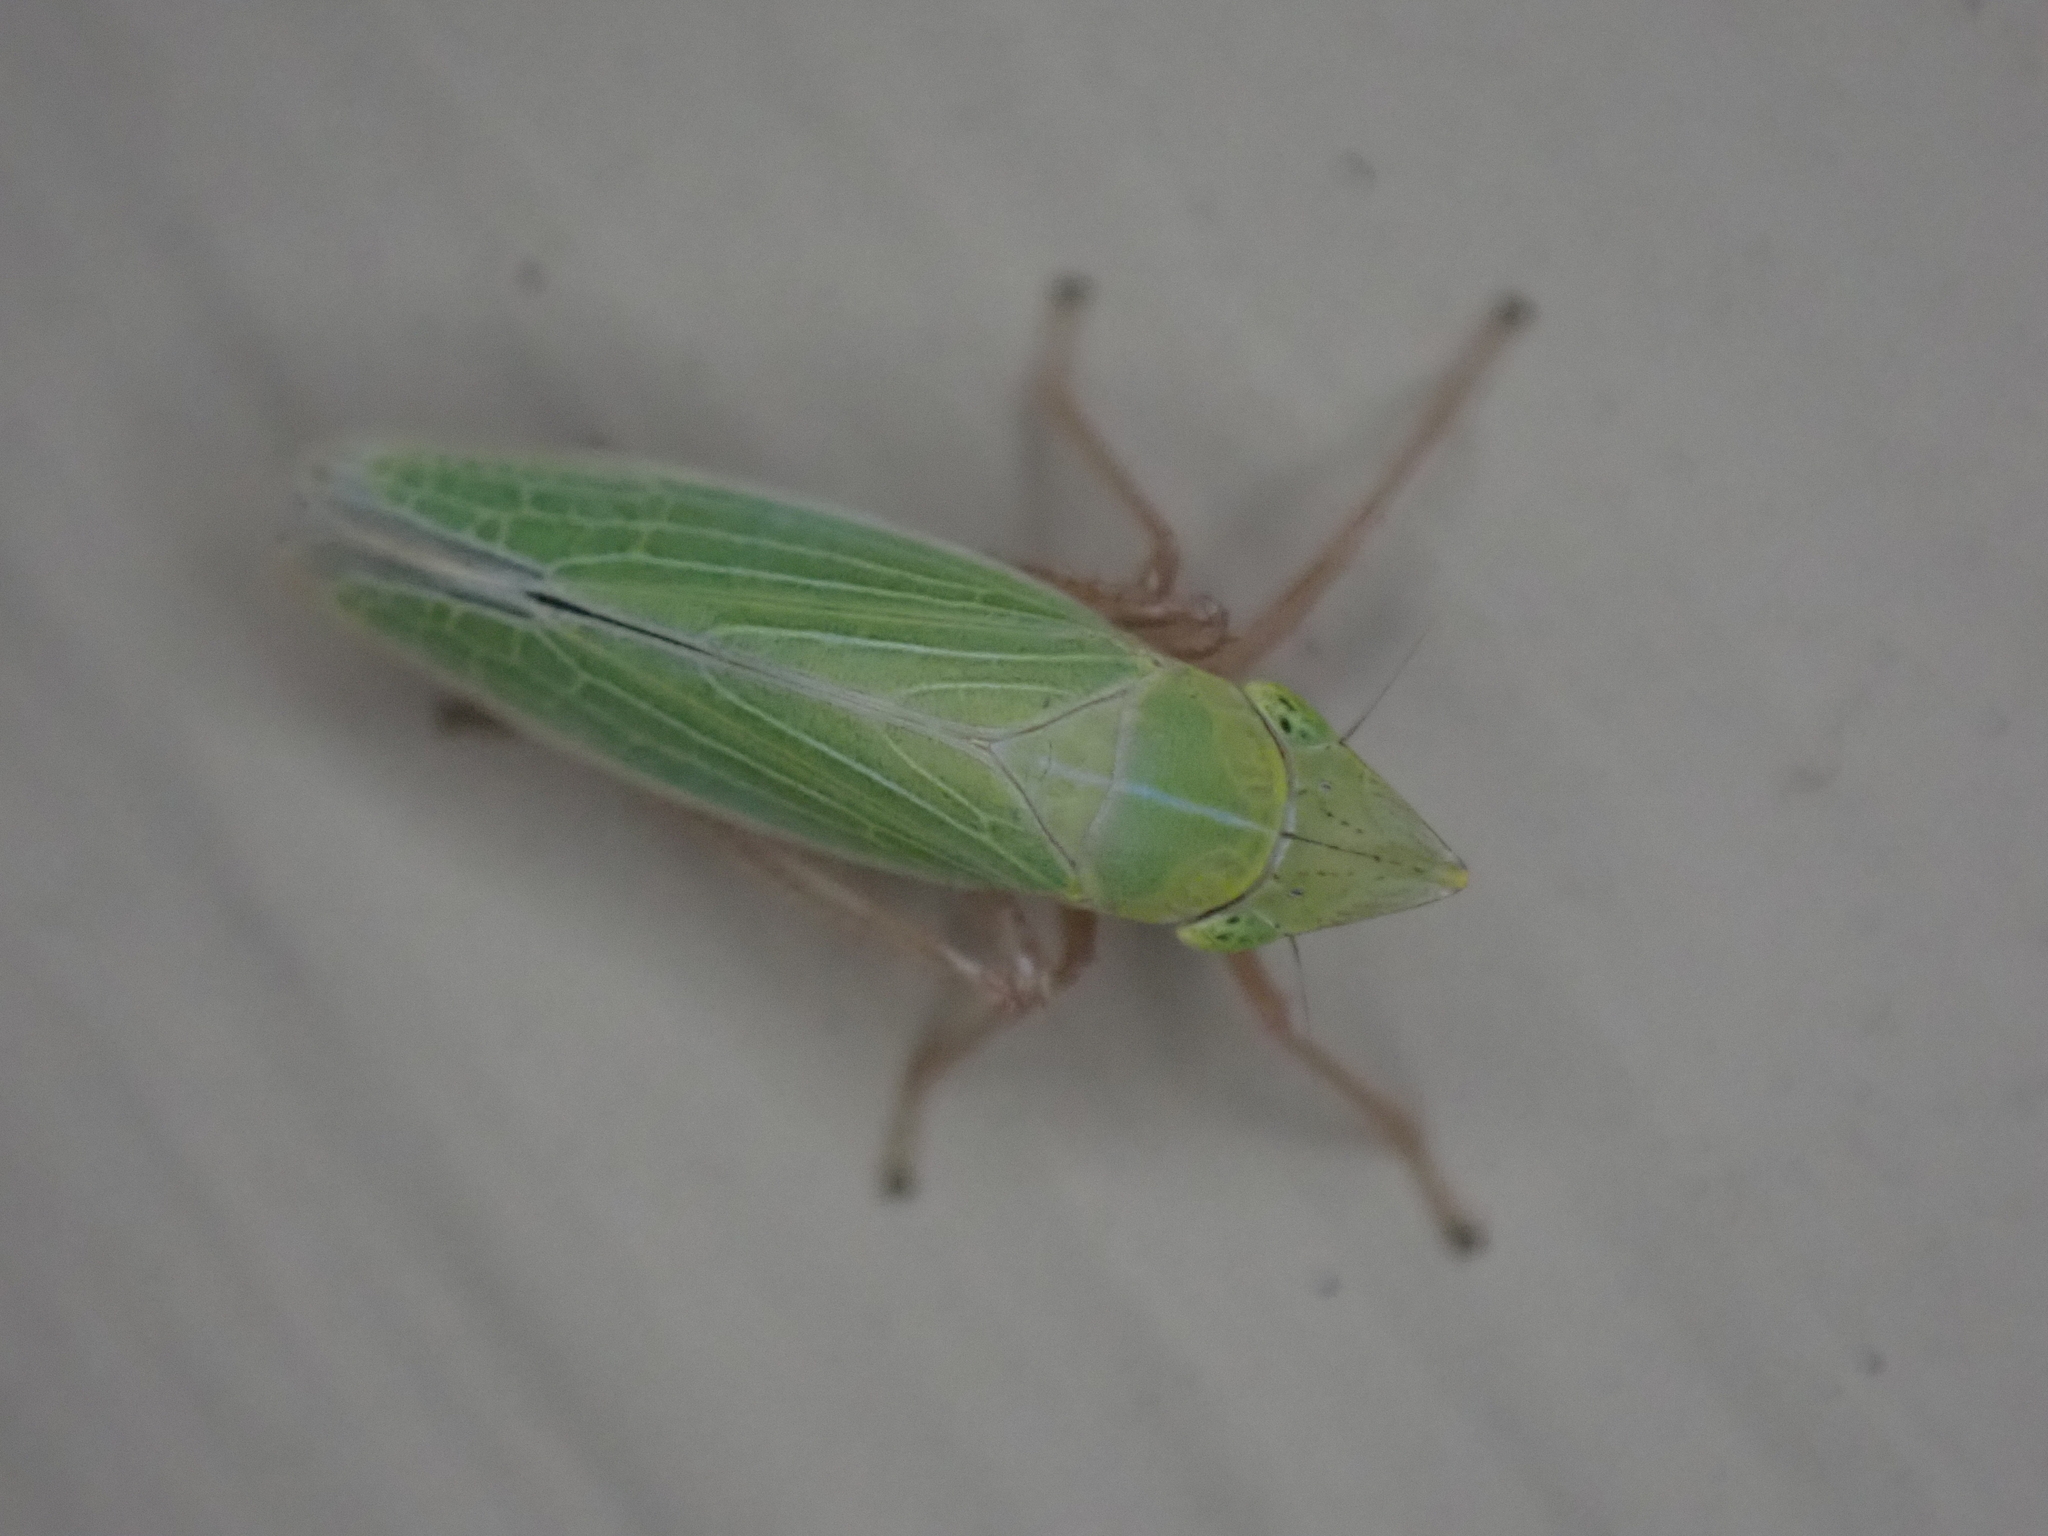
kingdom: Animalia
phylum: Arthropoda
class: Insecta
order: Hemiptera
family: Cicadellidae
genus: Draeculacephala
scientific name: Draeculacephala antica
